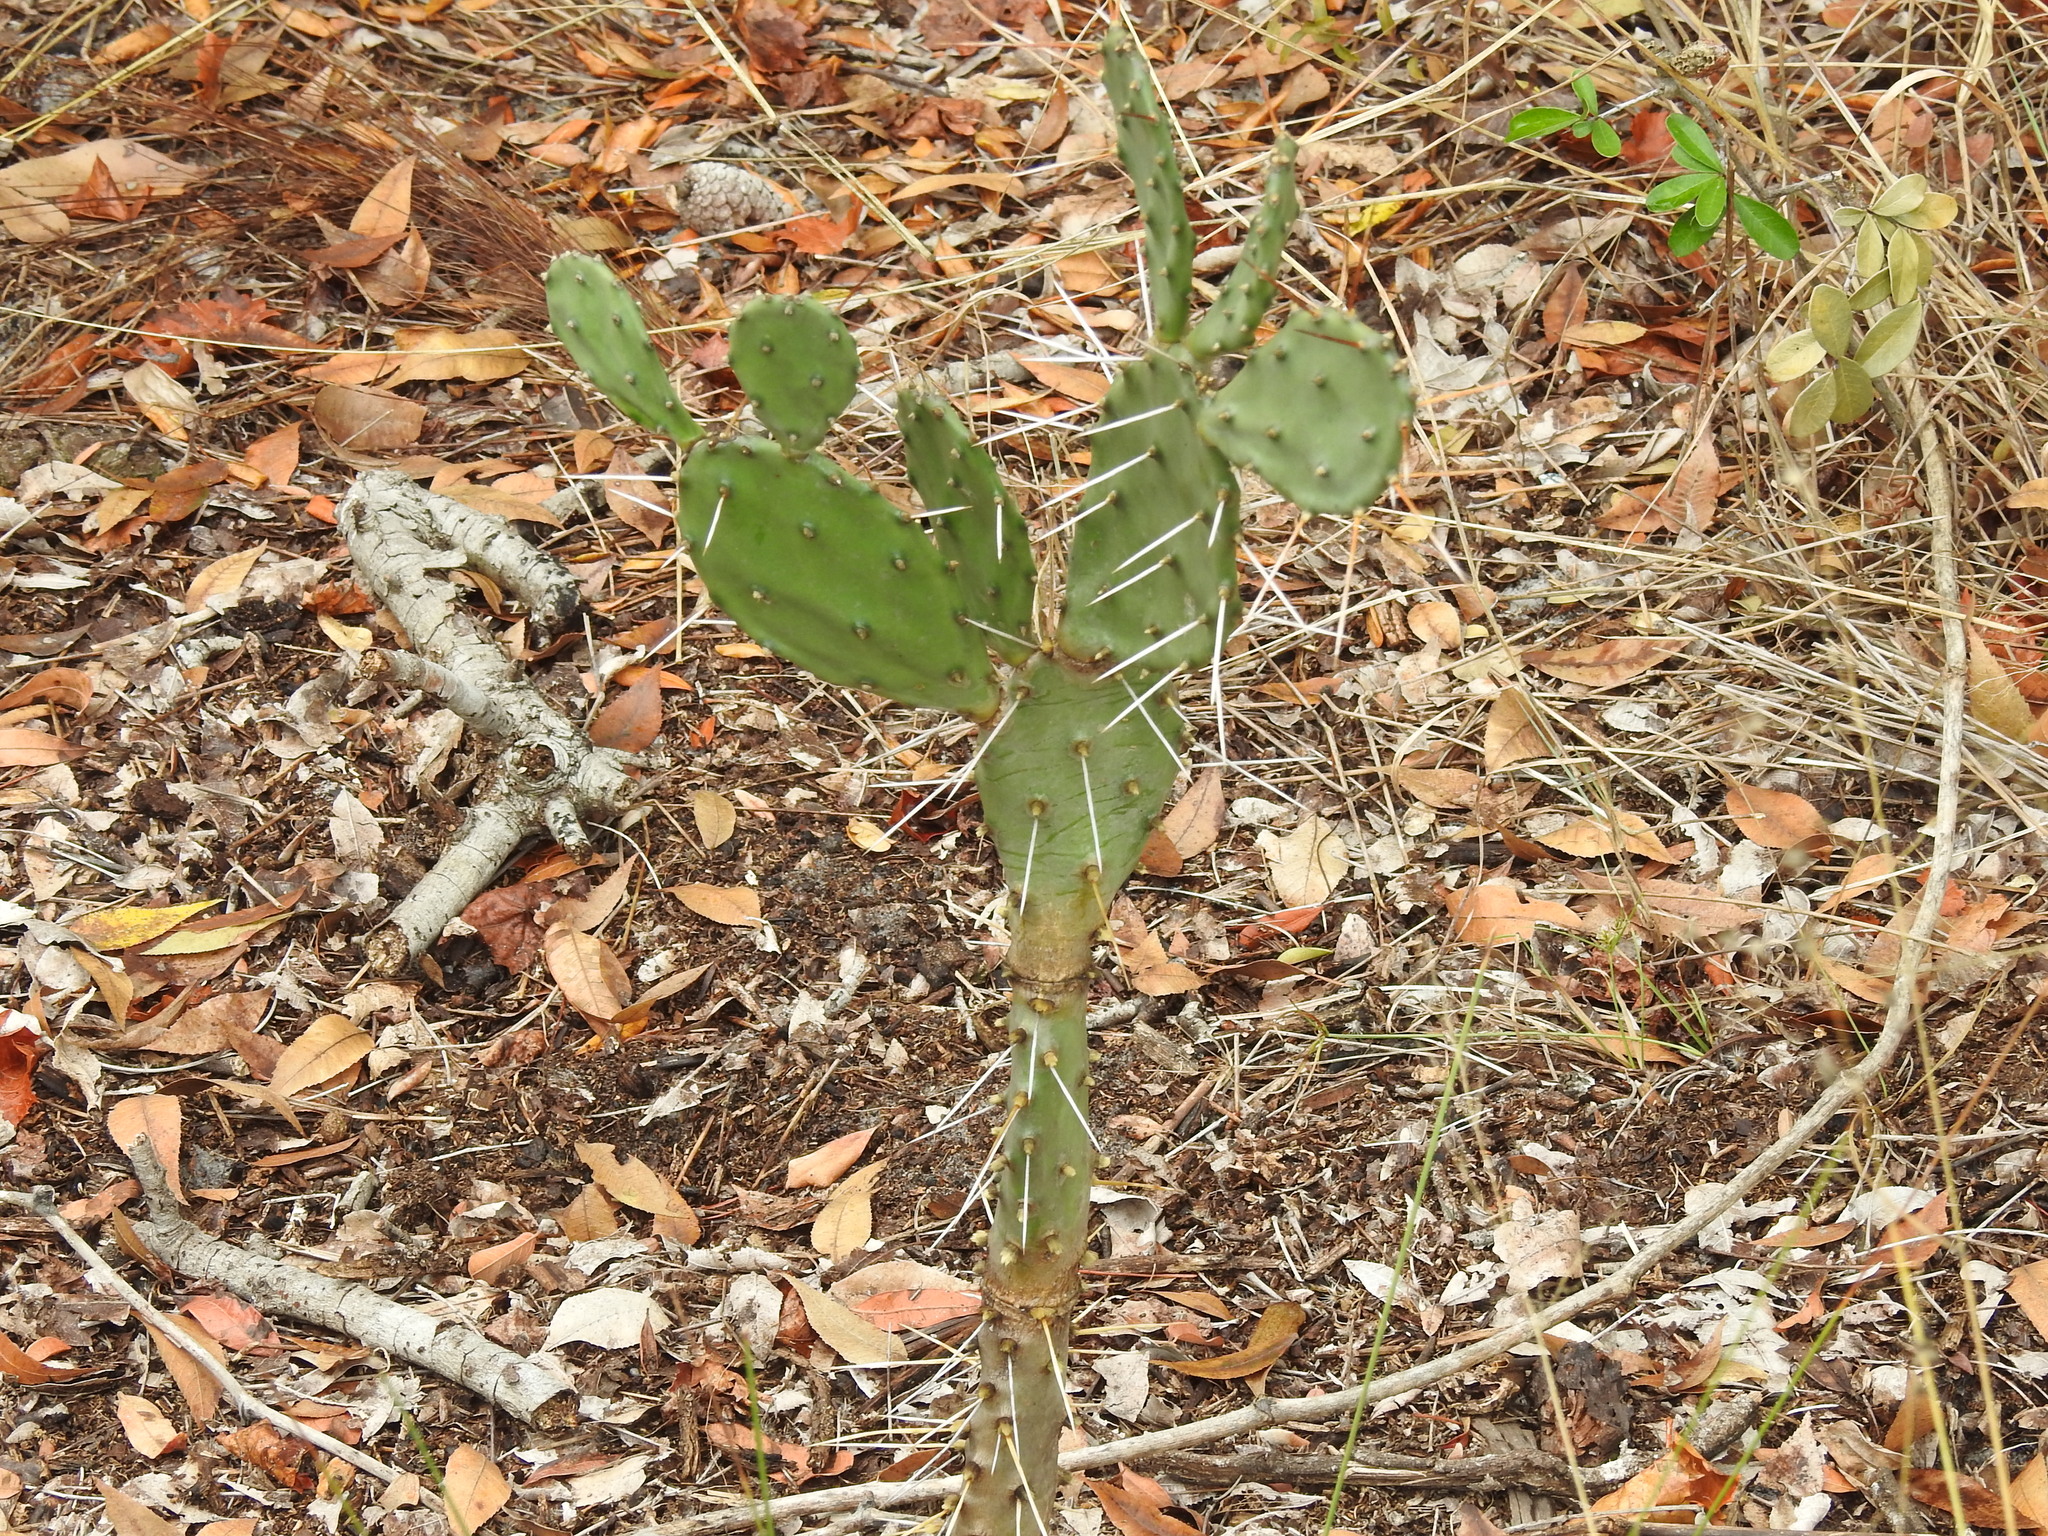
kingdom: Plantae
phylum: Tracheophyta
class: Magnoliopsida
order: Caryophyllales
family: Cactaceae
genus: Opuntia
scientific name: Opuntia austrina
